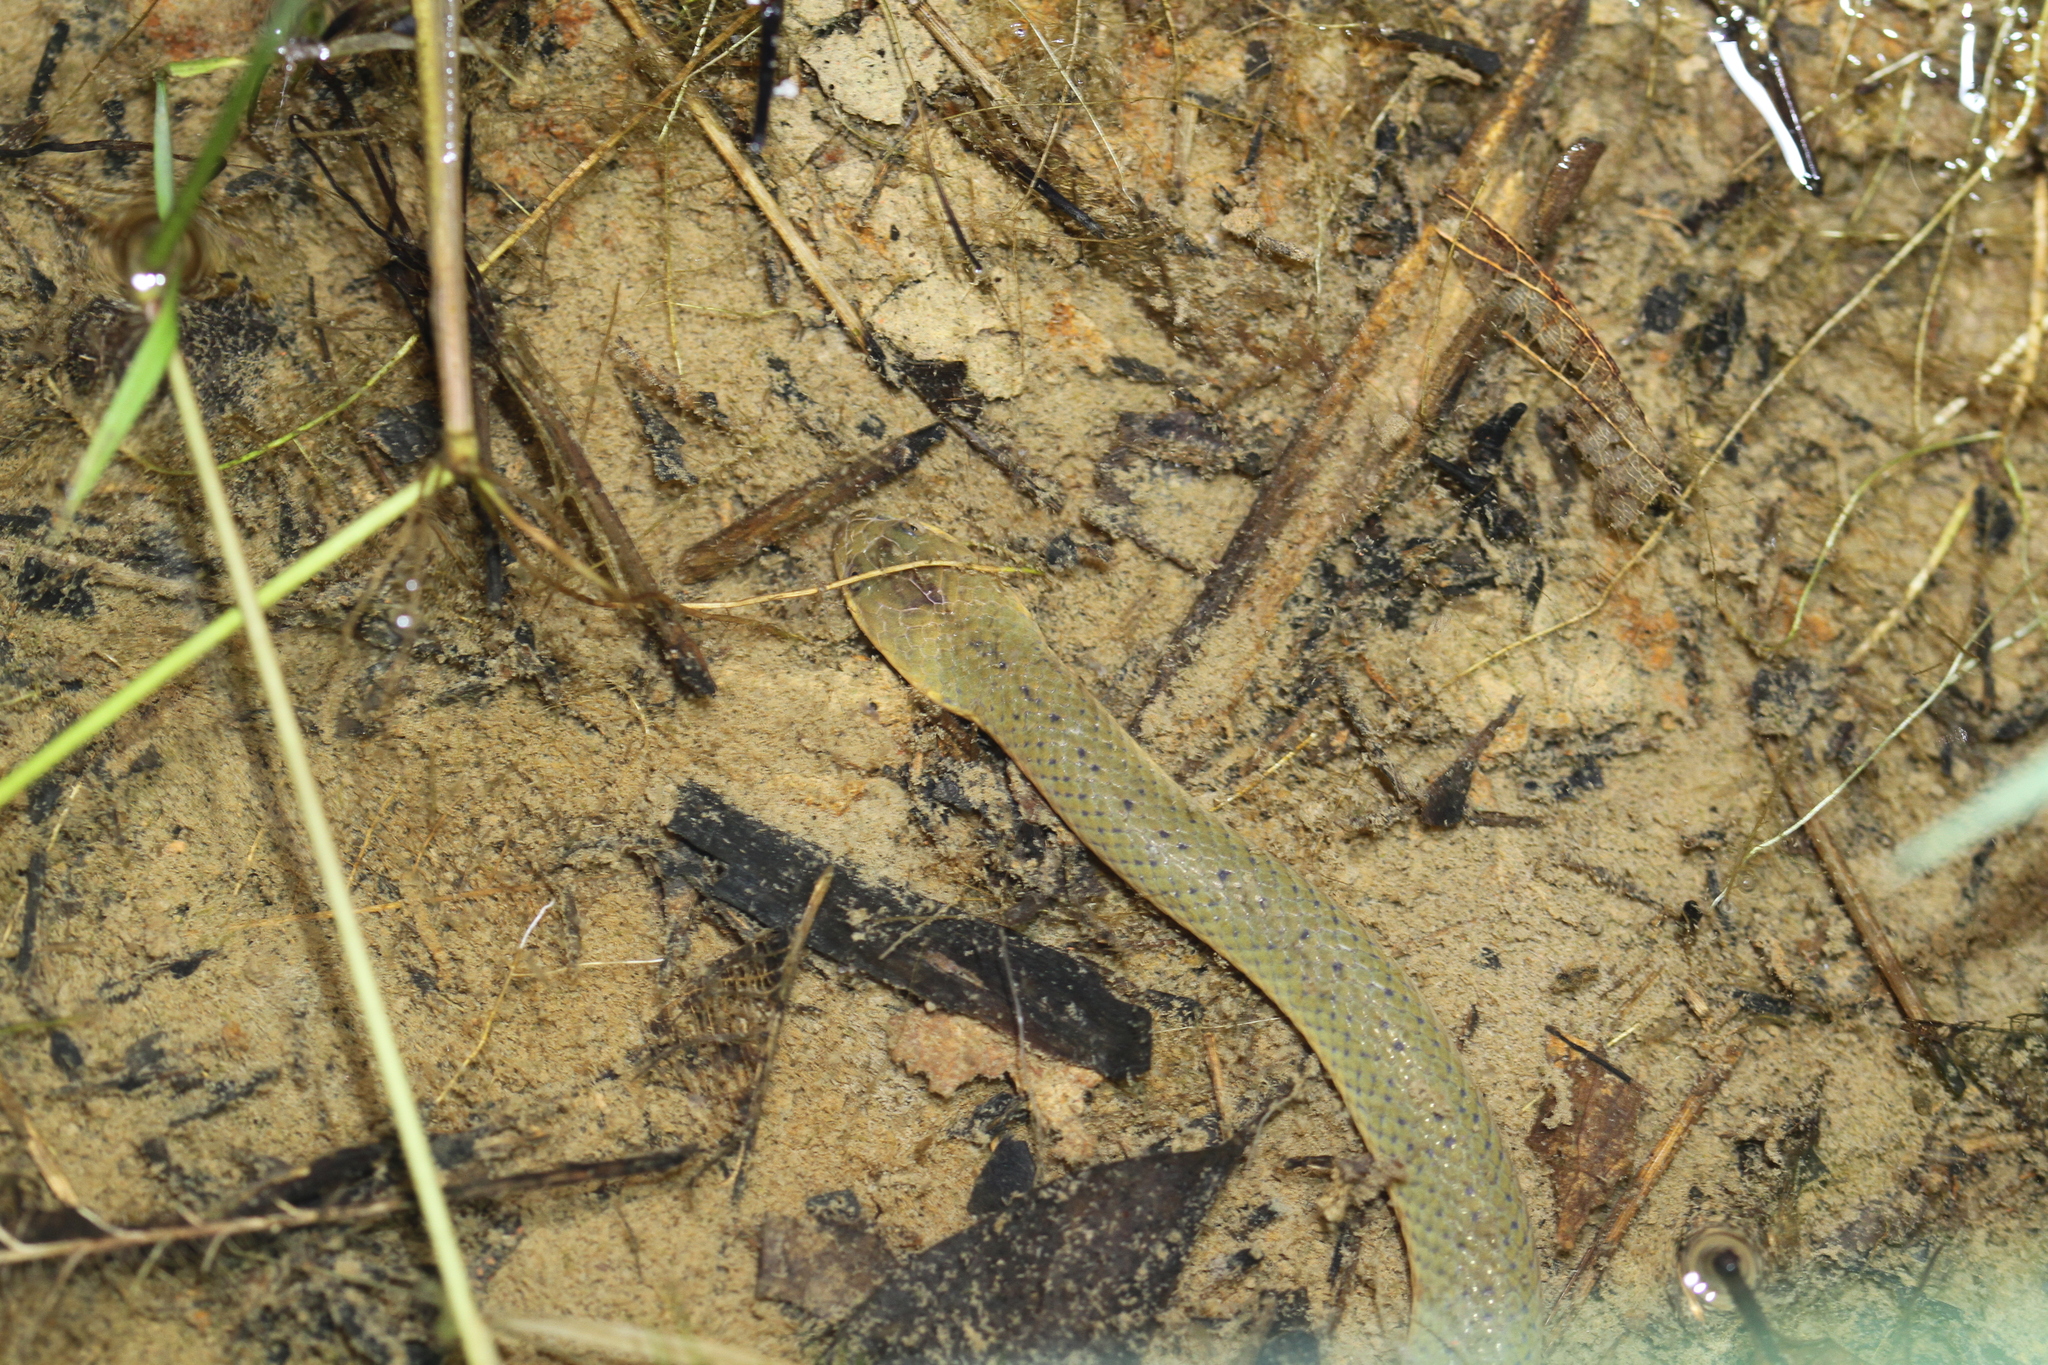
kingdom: Animalia
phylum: Chordata
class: Squamata
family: Homalopsidae
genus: Hypsiscopus
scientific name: Hypsiscopus plumbea
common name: Rice paddy snake
